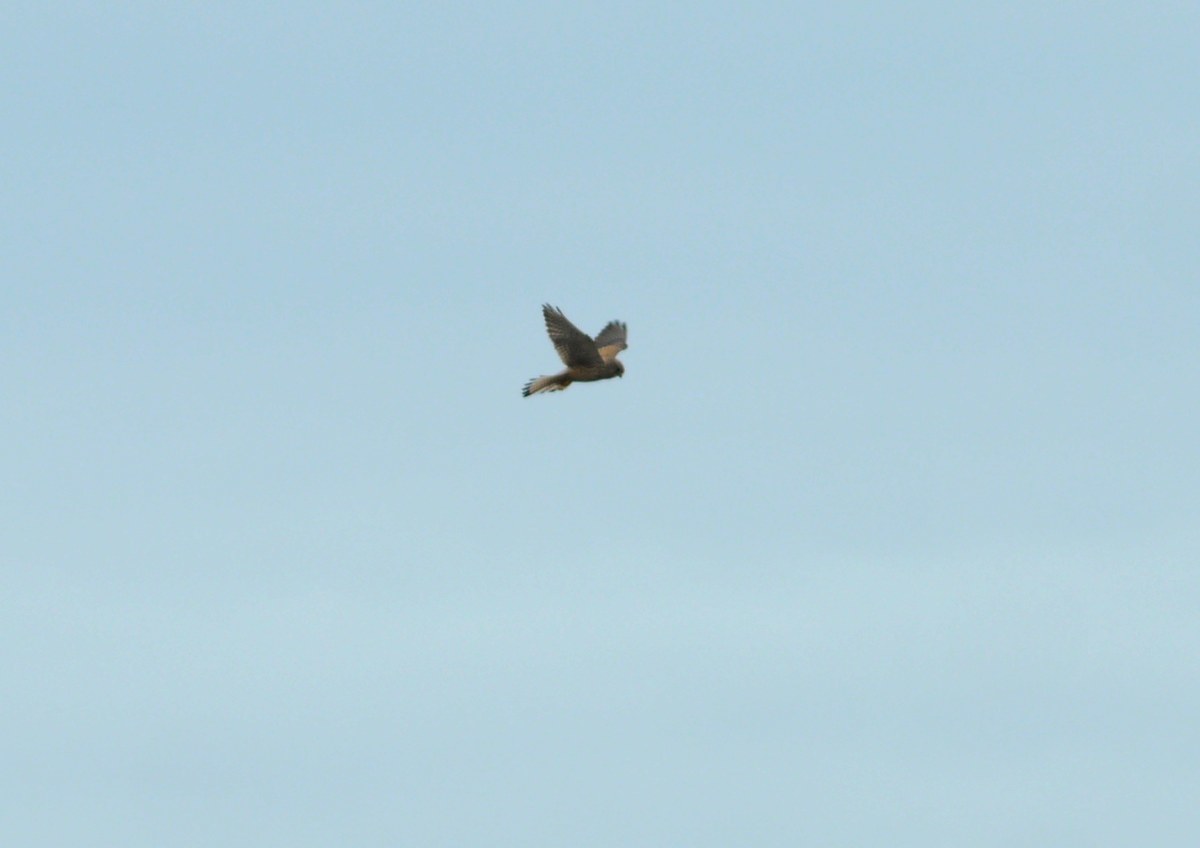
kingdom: Animalia
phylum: Chordata
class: Aves
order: Falconiformes
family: Falconidae
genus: Falco
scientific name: Falco tinnunculus
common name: Common kestrel
